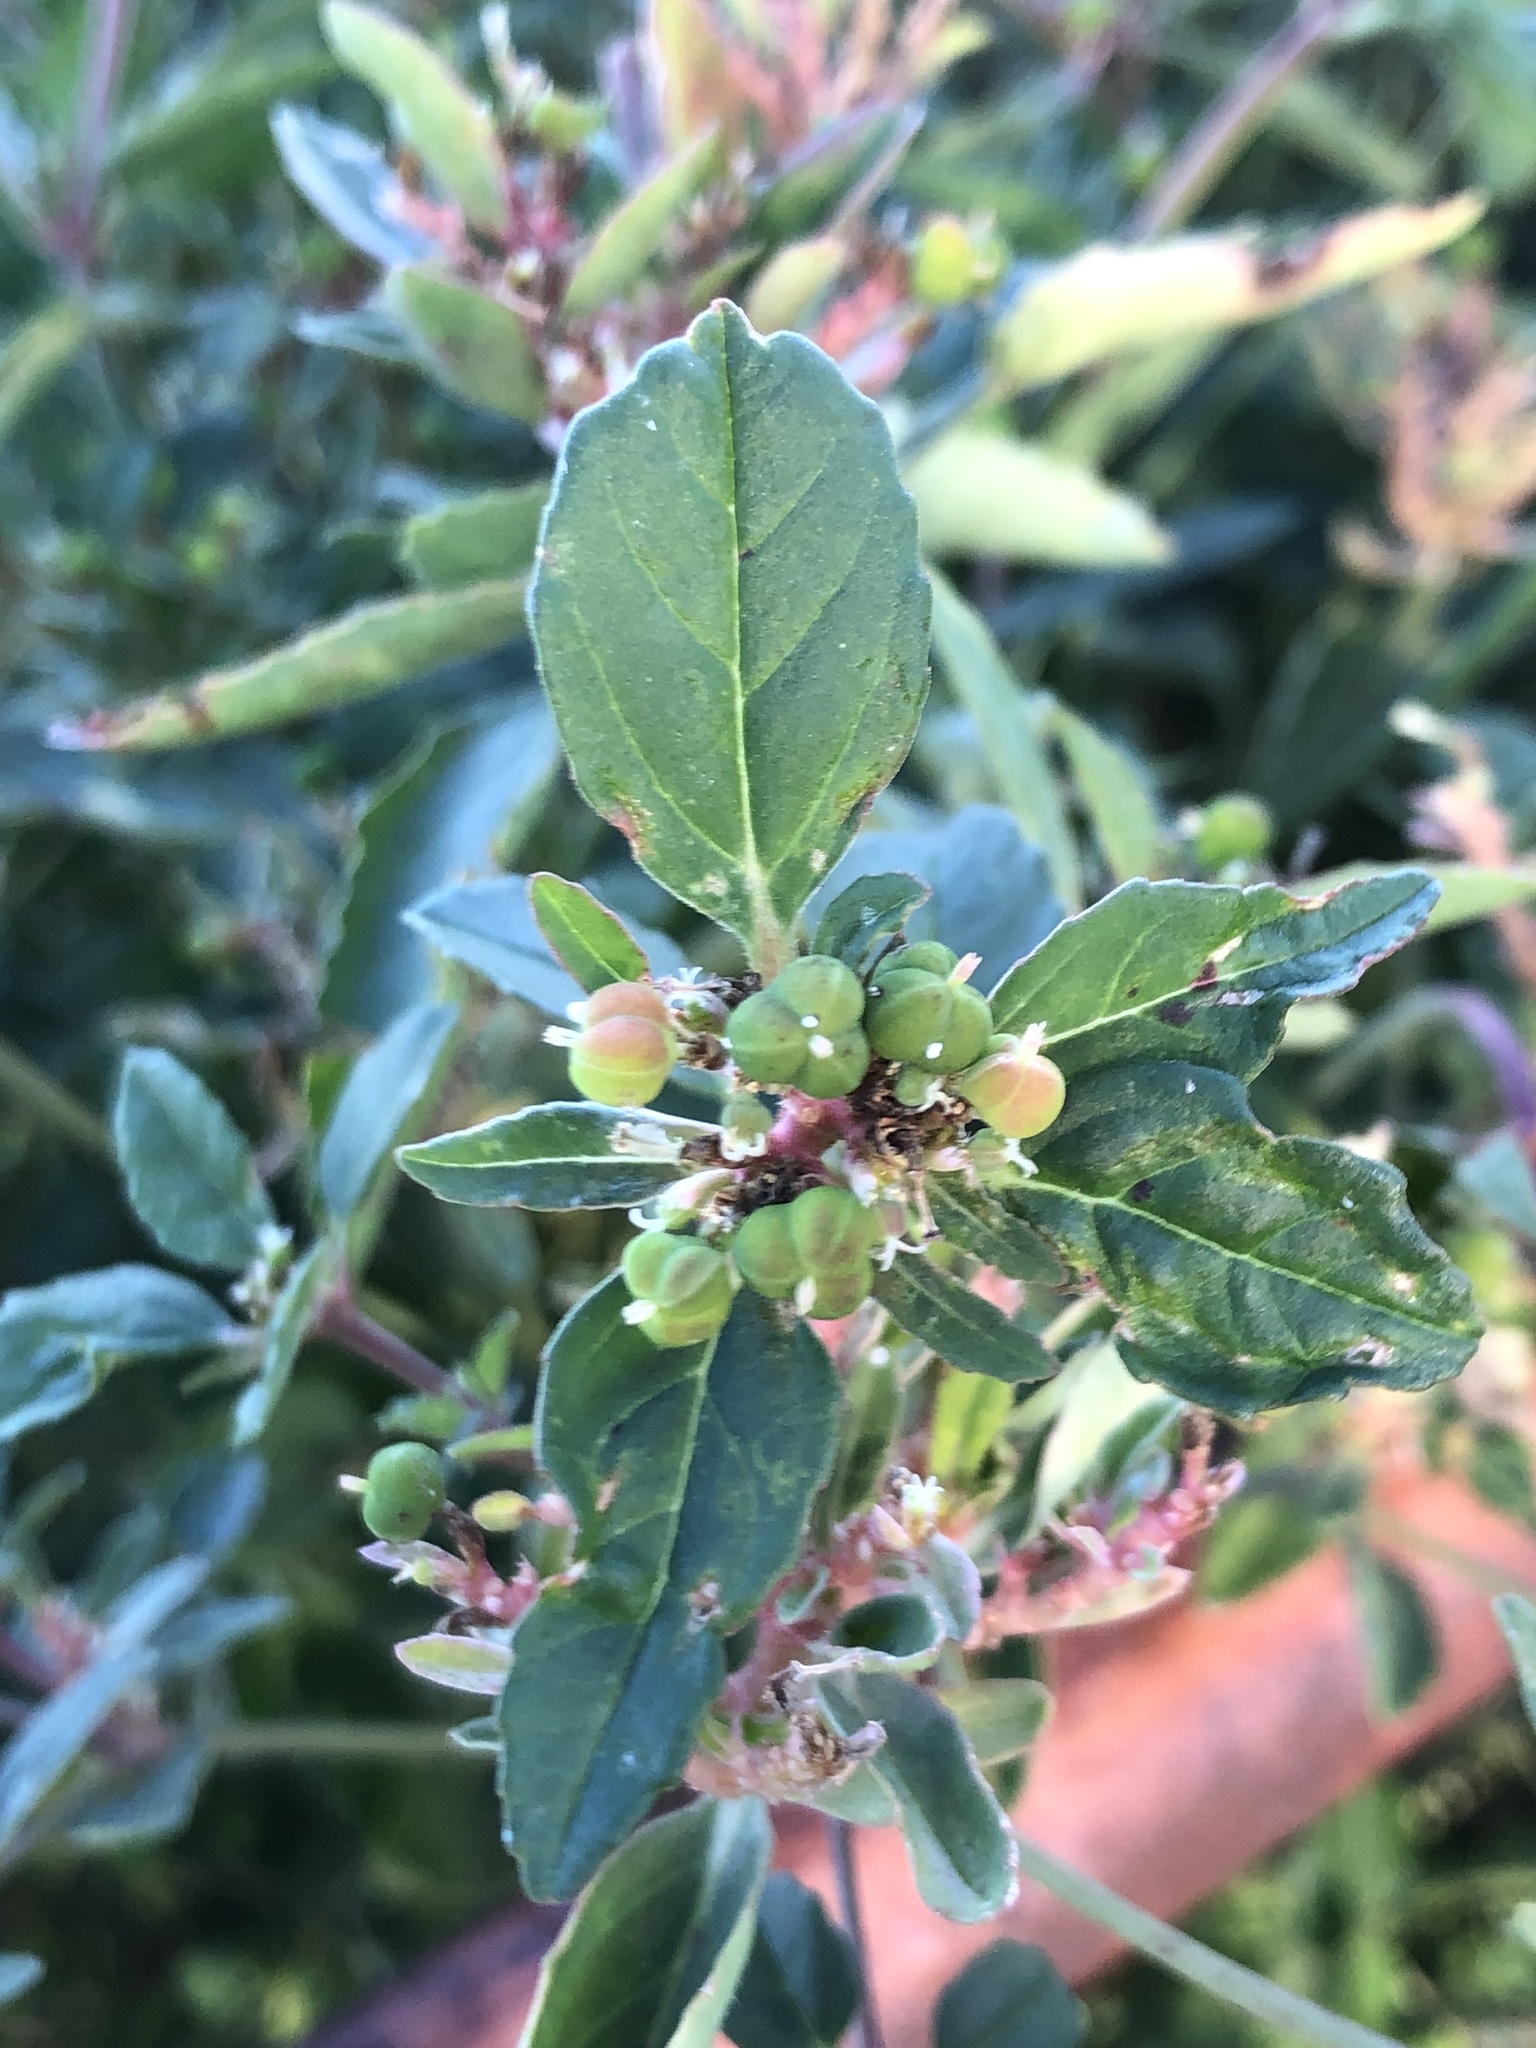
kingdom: Plantae
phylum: Tracheophyta
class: Magnoliopsida
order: Malpighiales
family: Euphorbiaceae
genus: Euphorbia
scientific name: Euphorbia dentata
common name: Dentate spurge
